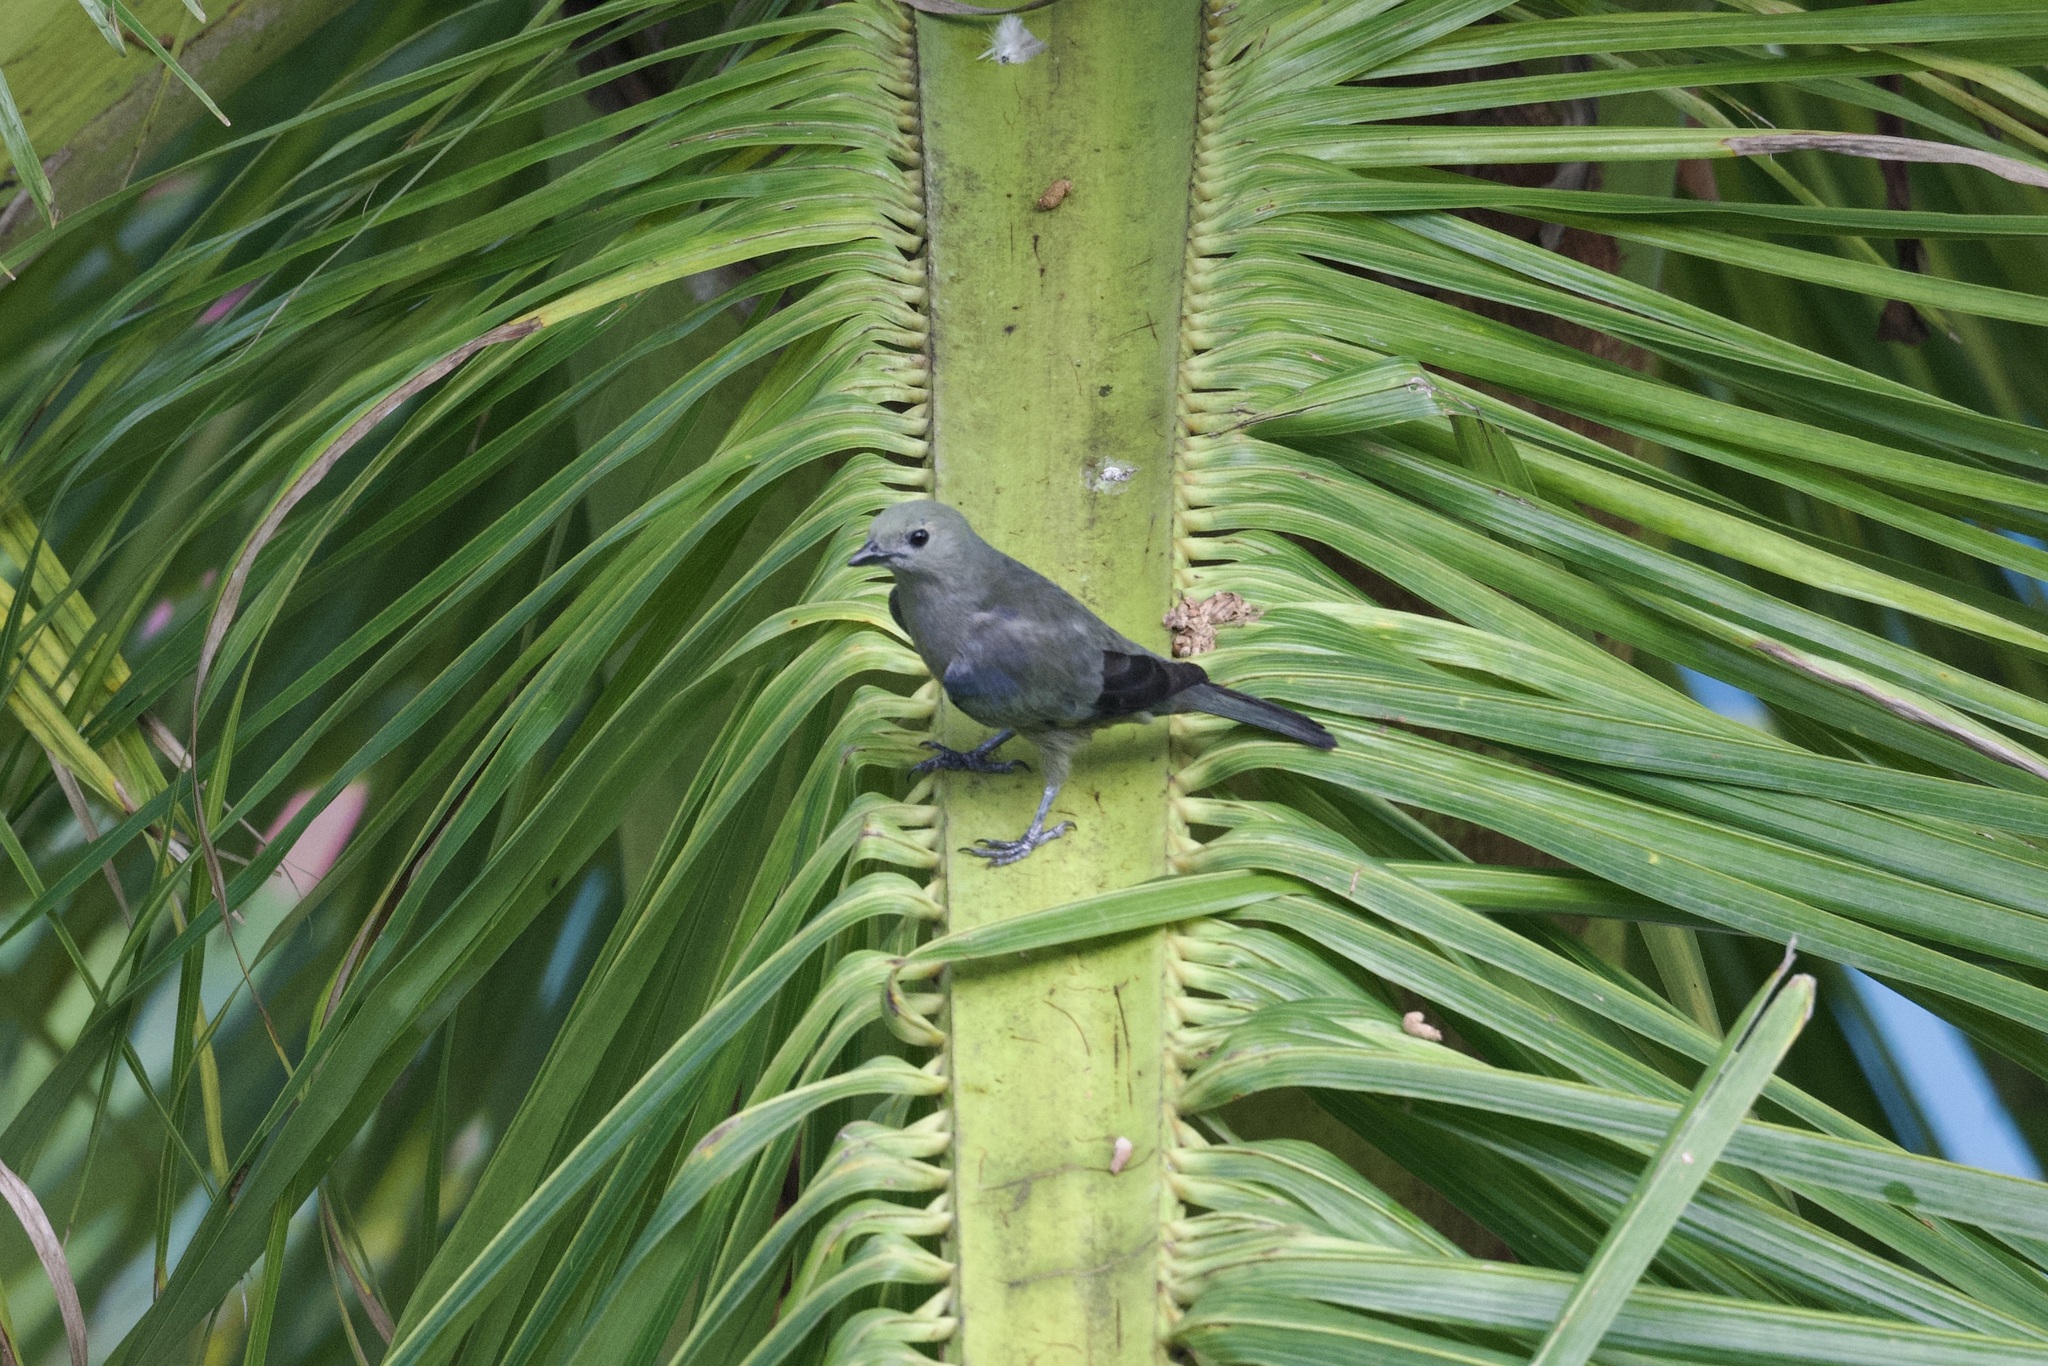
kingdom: Animalia
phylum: Chordata
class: Aves
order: Passeriformes
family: Thraupidae
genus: Thraupis
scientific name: Thraupis palmarum
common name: Palm tanager
